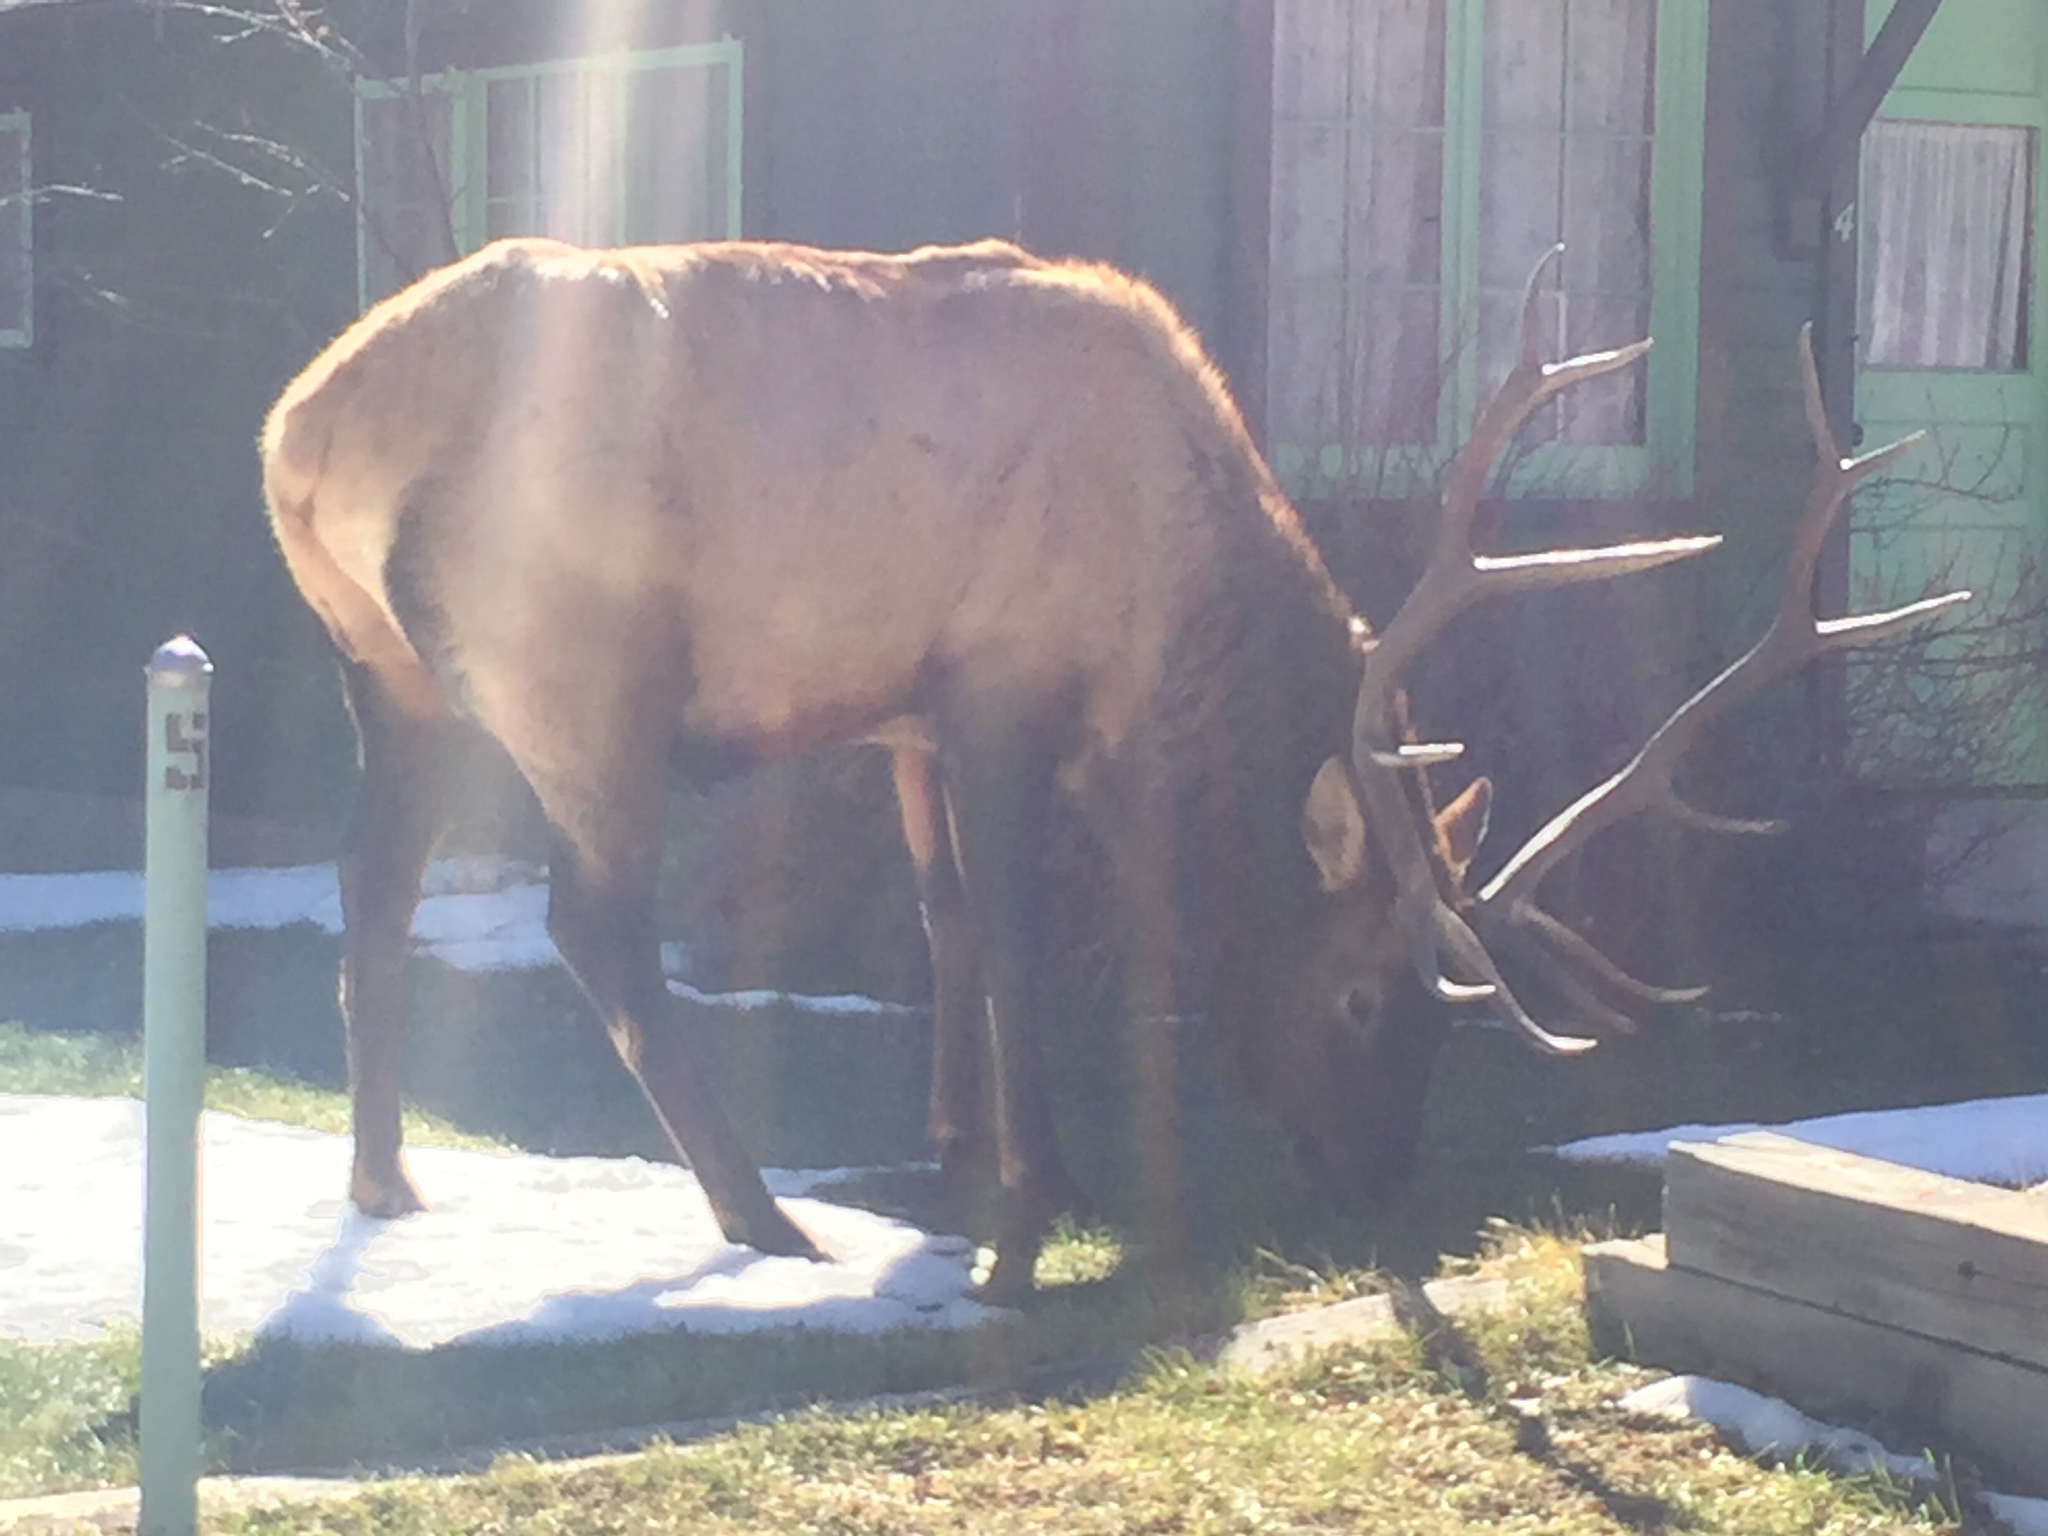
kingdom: Animalia
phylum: Chordata
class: Mammalia
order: Artiodactyla
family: Cervidae
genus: Cervus
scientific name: Cervus elaphus
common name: Red deer
